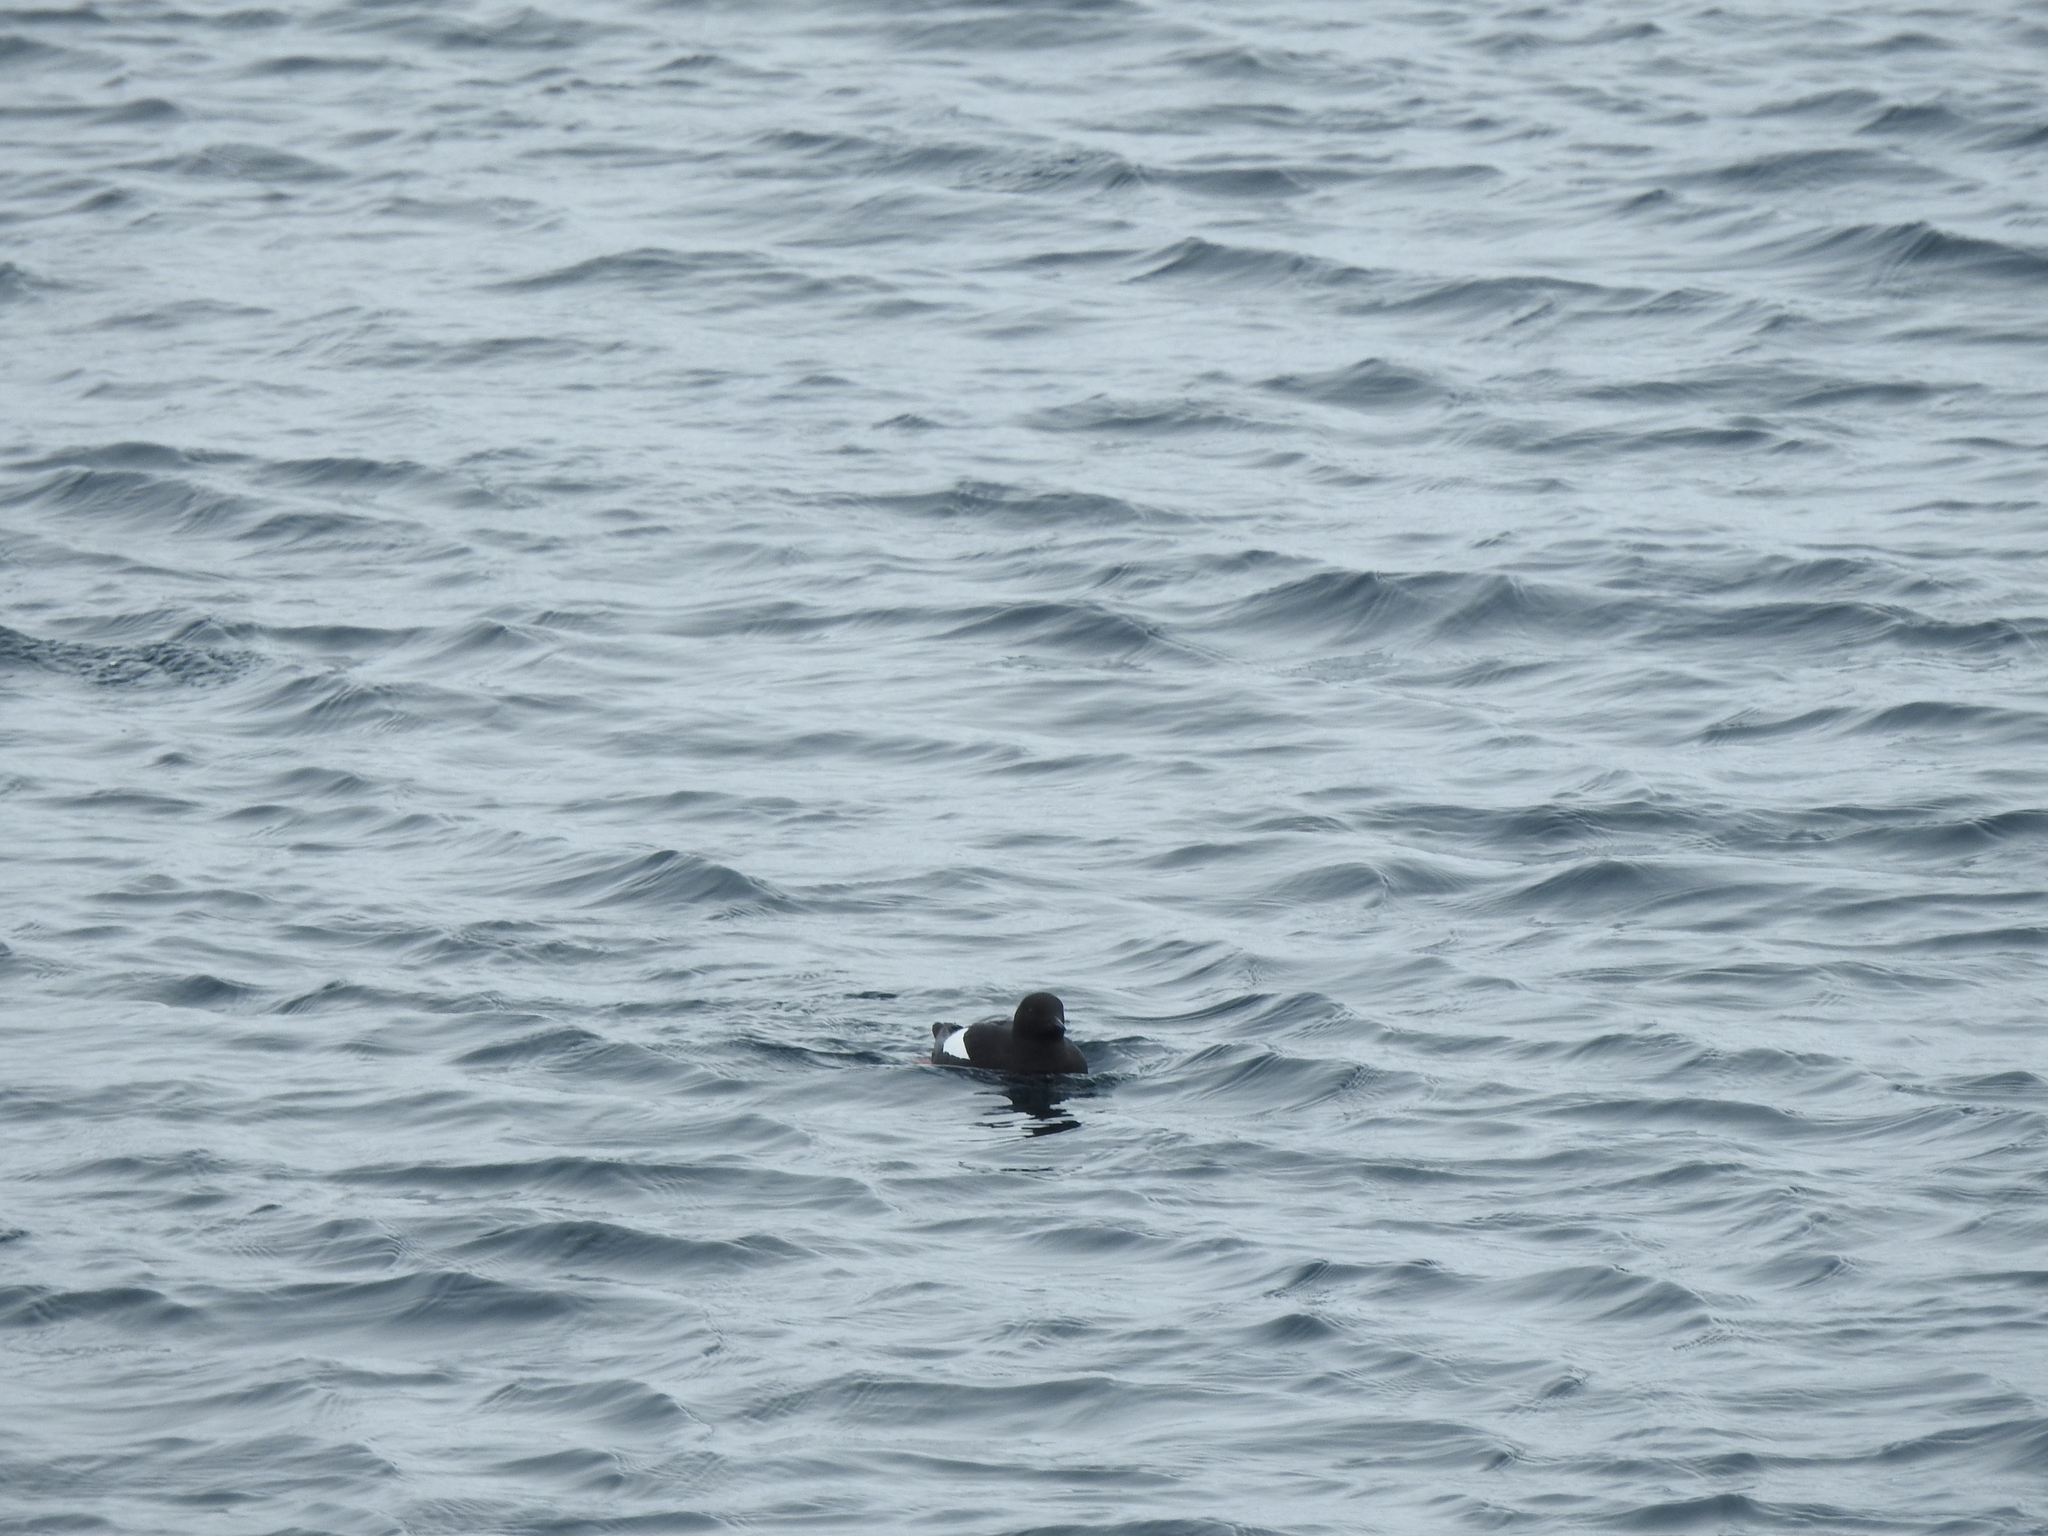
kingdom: Animalia
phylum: Chordata
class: Aves
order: Charadriiformes
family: Alcidae
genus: Cepphus
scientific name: Cepphus grylle
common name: Black guillemot
